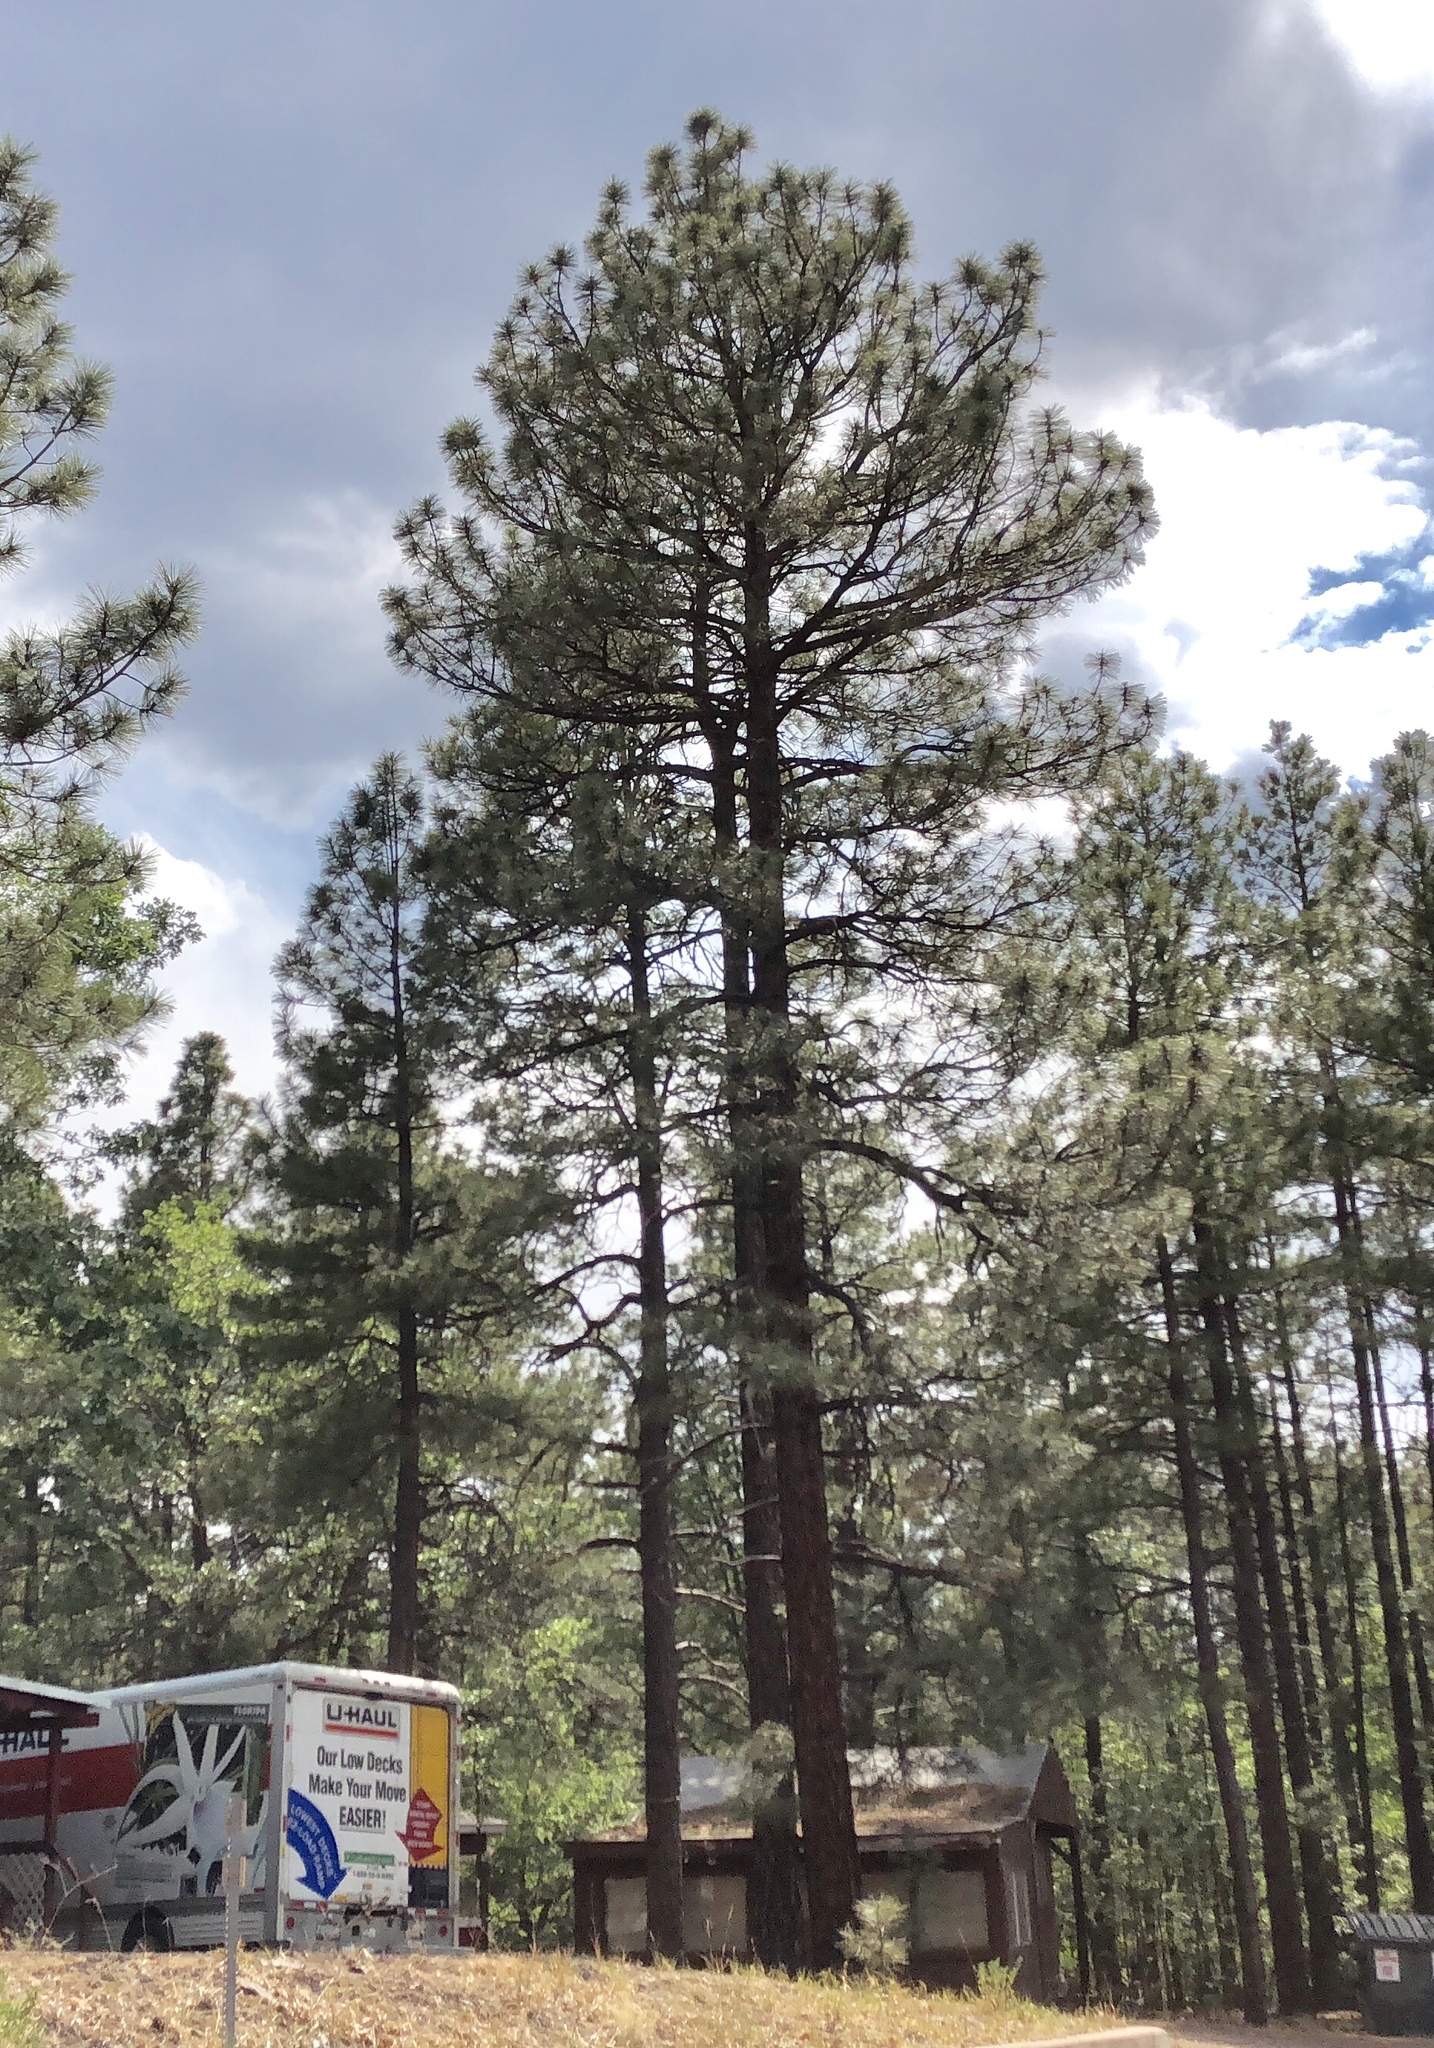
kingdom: Plantae
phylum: Tracheophyta
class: Pinopsida
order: Pinales
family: Pinaceae
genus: Pinus
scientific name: Pinus ponderosa
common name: Western yellow-pine
